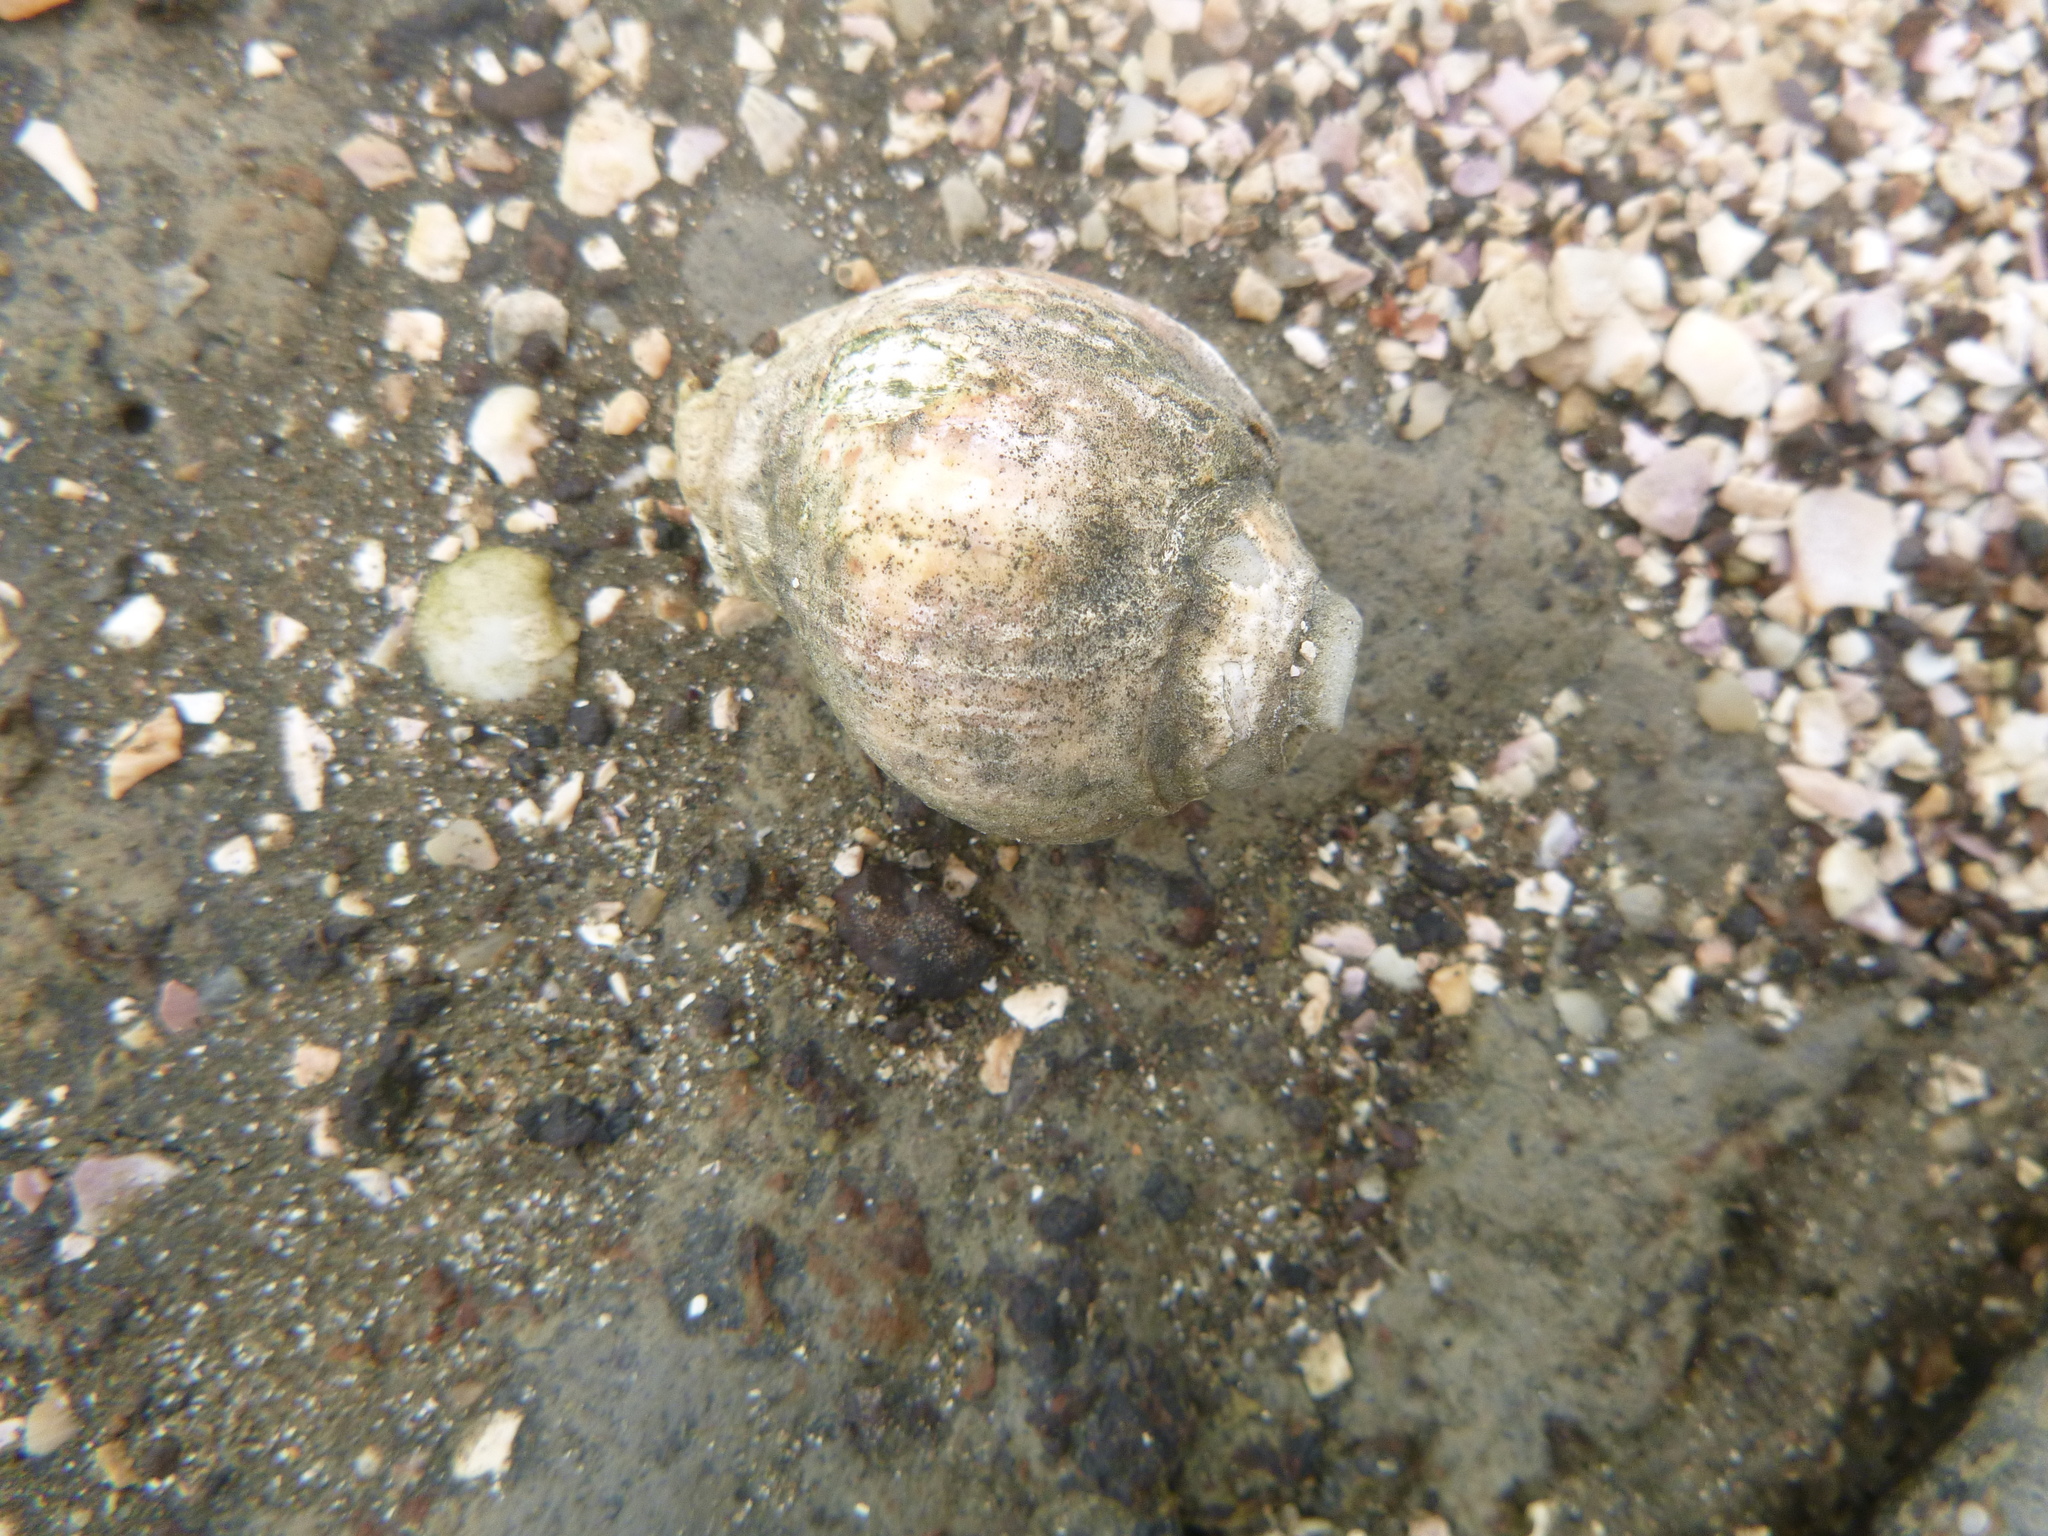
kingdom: Animalia
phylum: Mollusca
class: Gastropoda
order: Neogastropoda
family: Cominellidae
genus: Cominella
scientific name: Cominella adspersa
